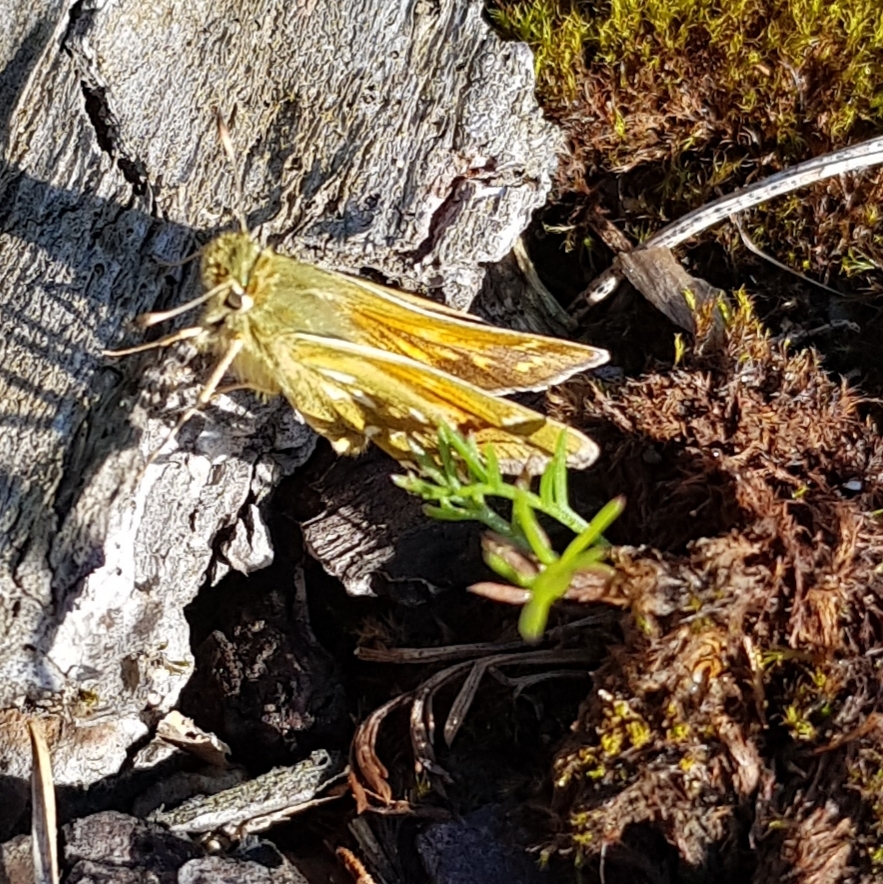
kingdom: Animalia
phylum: Arthropoda
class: Insecta
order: Lepidoptera
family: Hesperiidae
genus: Hesperia
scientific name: Hesperia comma
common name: Common branded skipper
